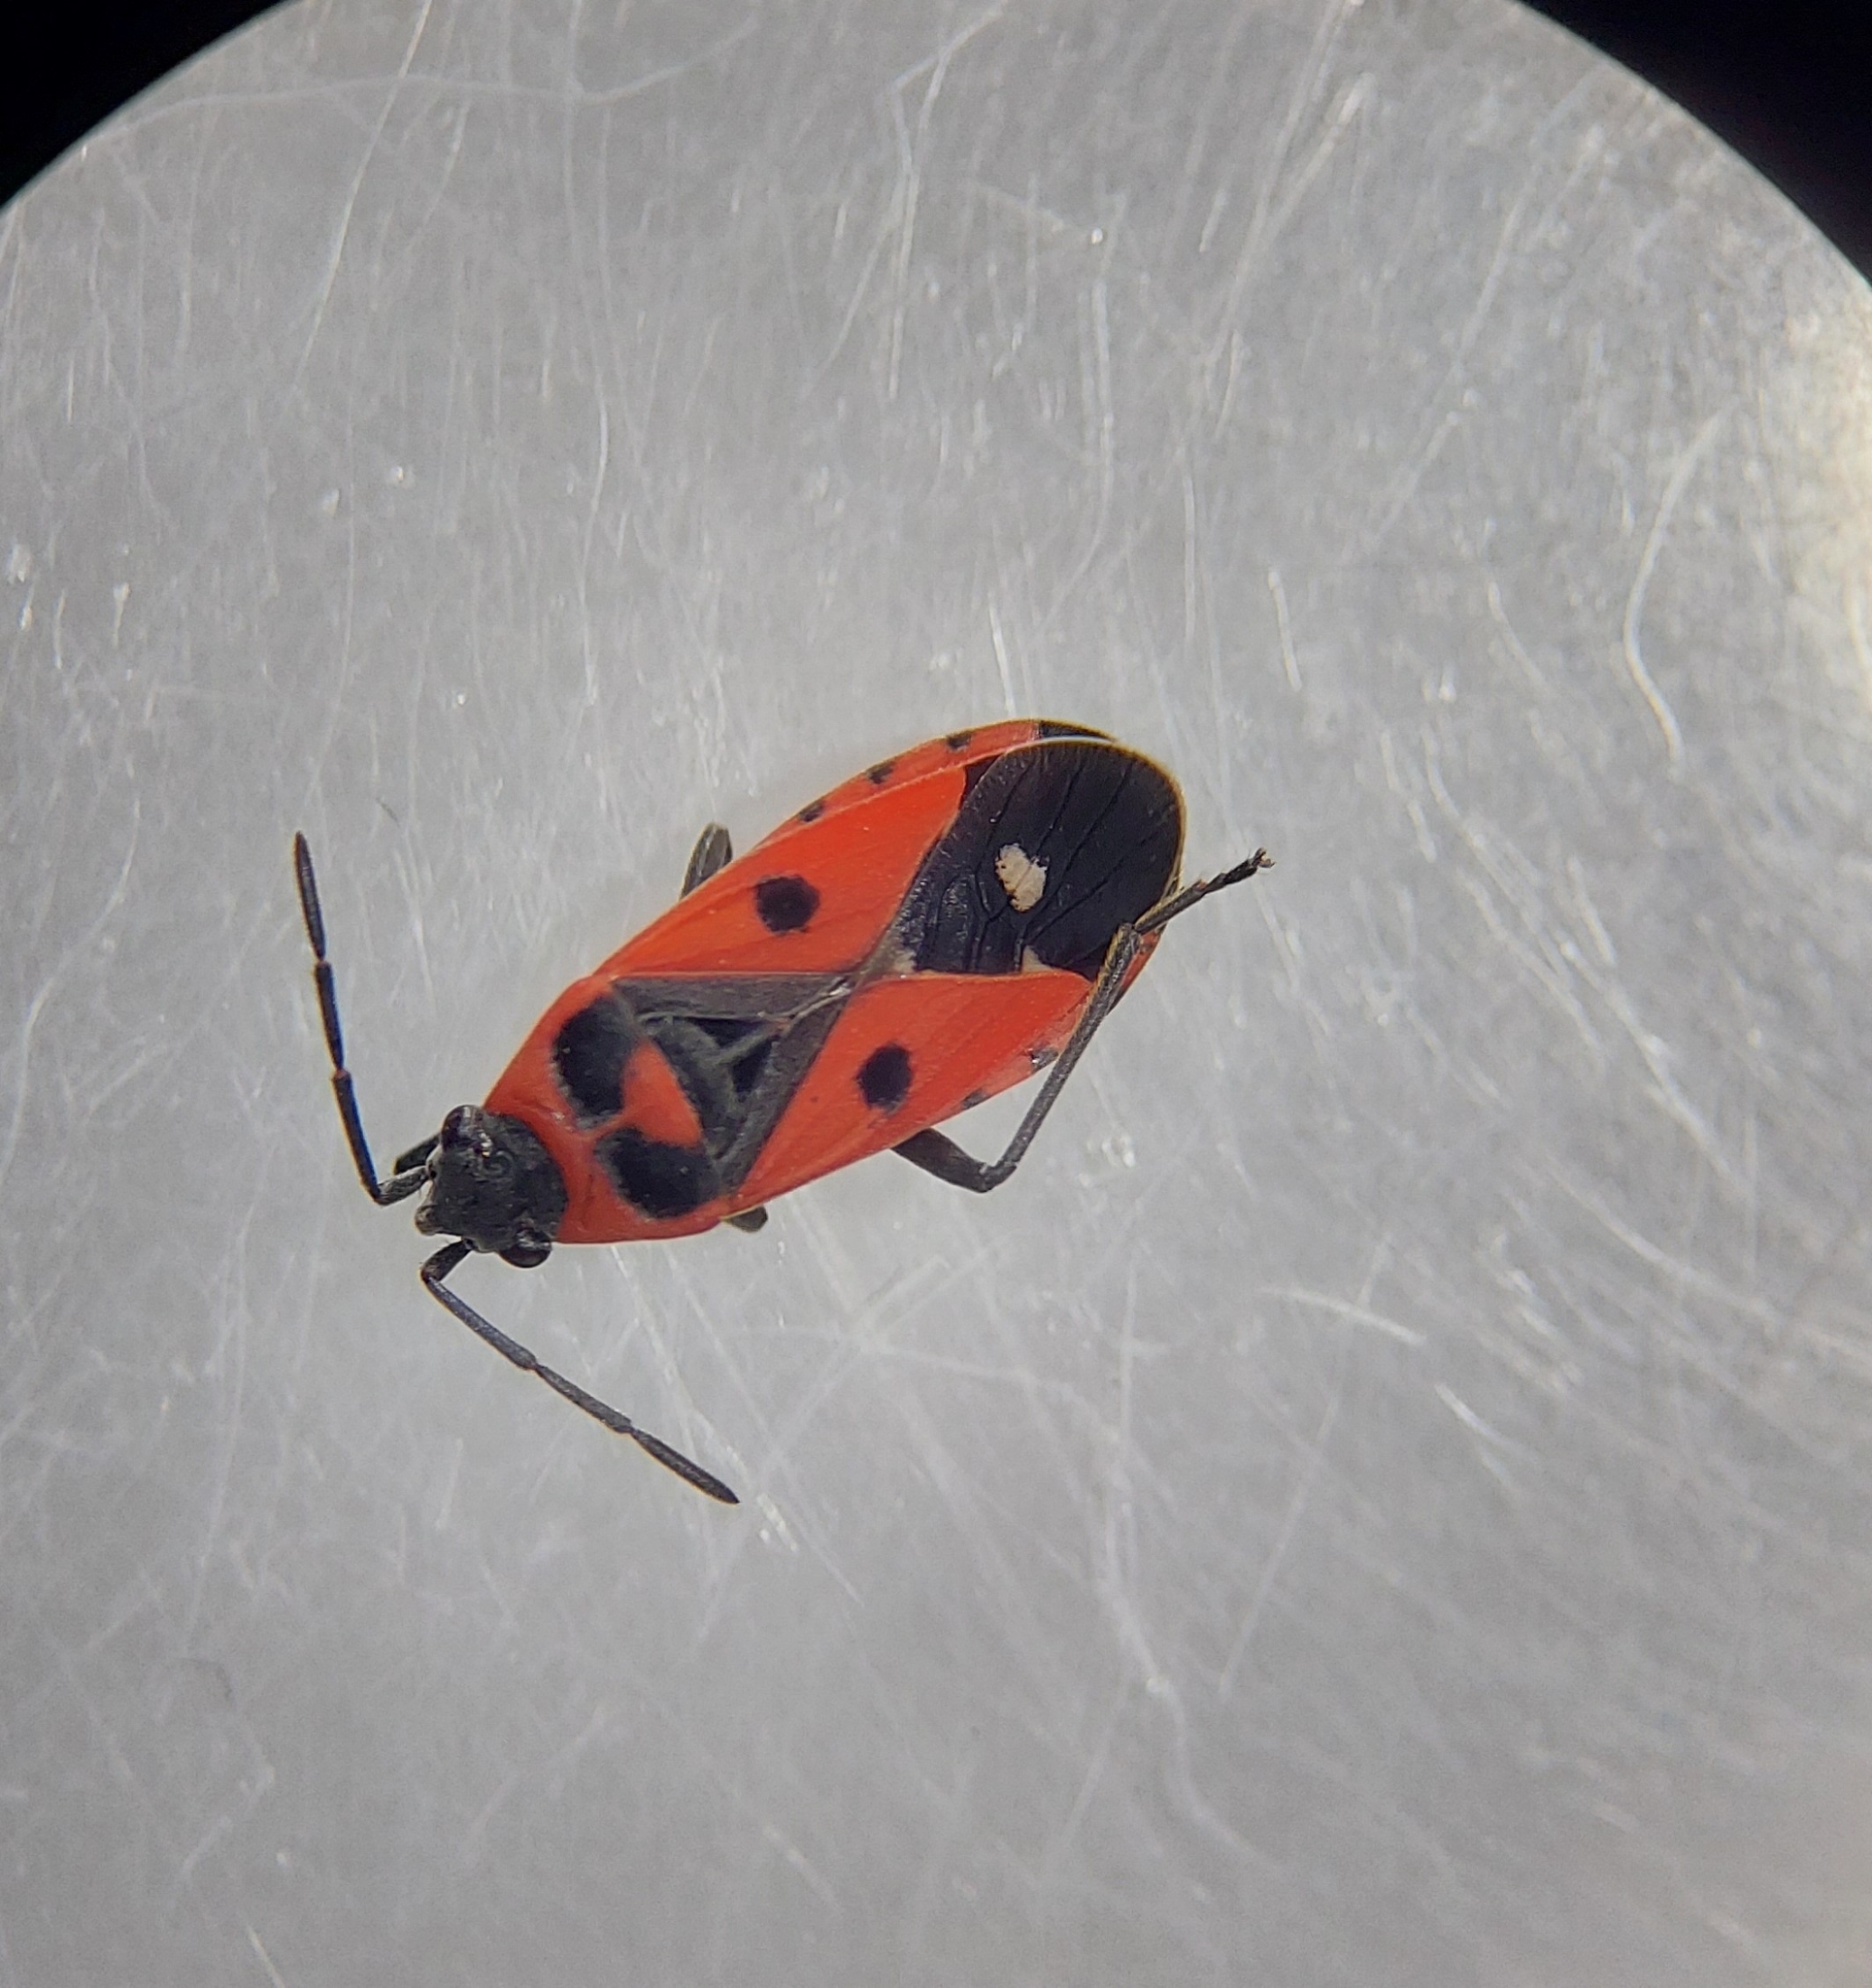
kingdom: Animalia
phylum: Arthropoda
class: Insecta
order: Hemiptera
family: Lygaeidae
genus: Melanocoryphus
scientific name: Melanocoryphus albomaculatus
